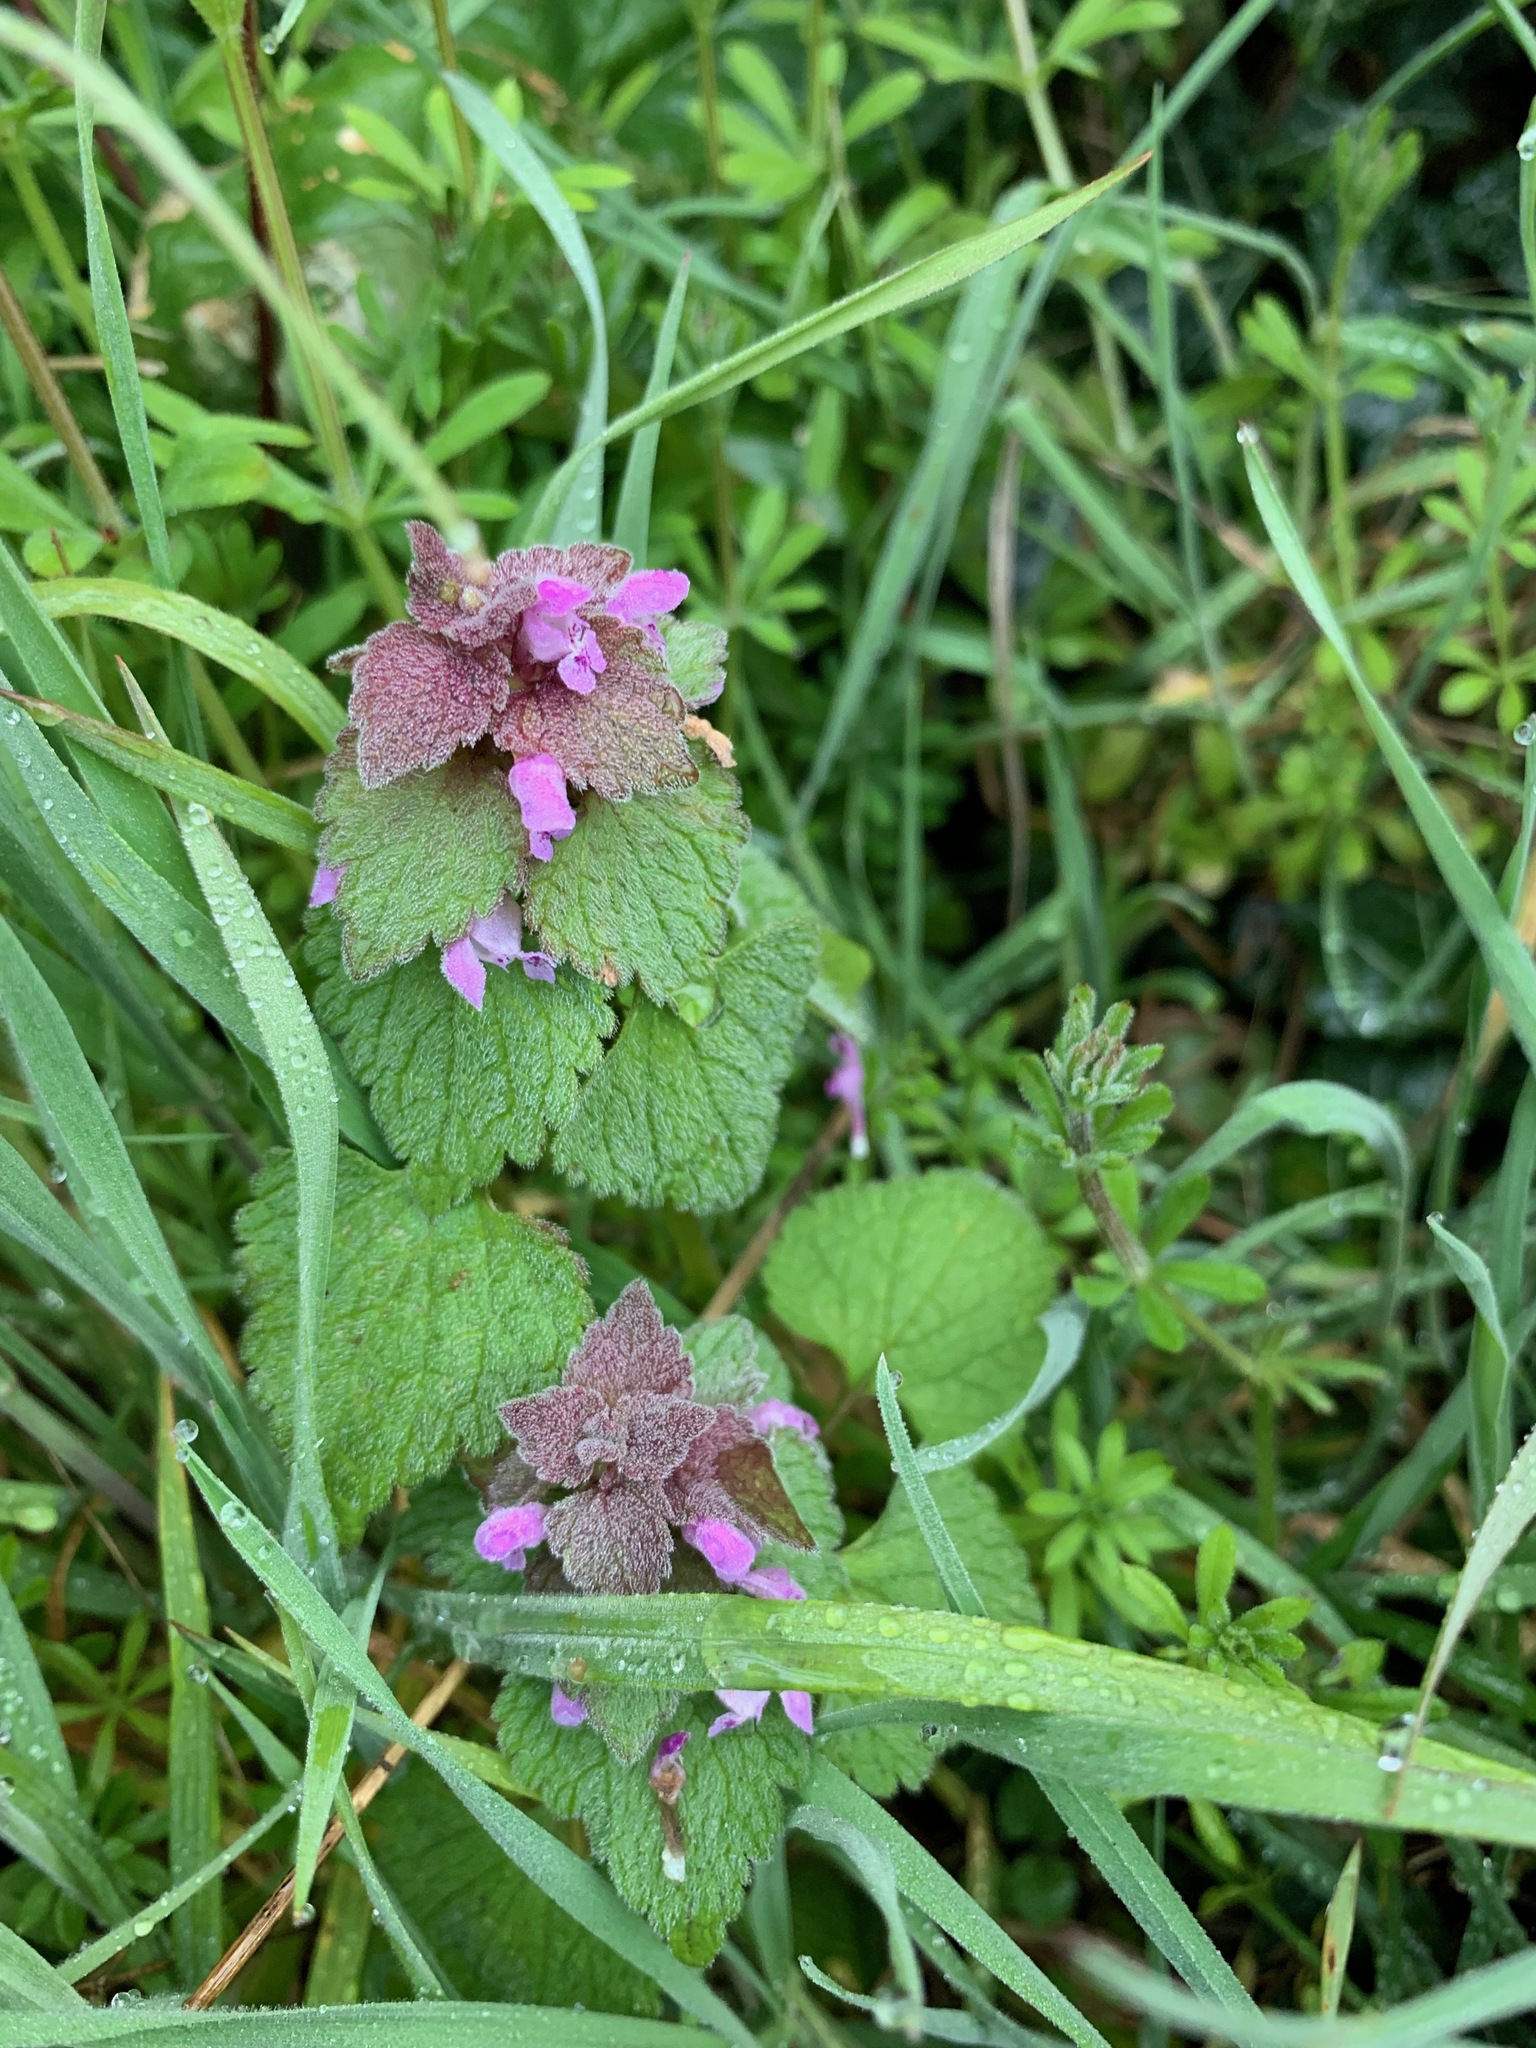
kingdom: Plantae
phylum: Tracheophyta
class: Magnoliopsida
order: Lamiales
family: Lamiaceae
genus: Lamium
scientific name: Lamium purpureum
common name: Red dead-nettle
